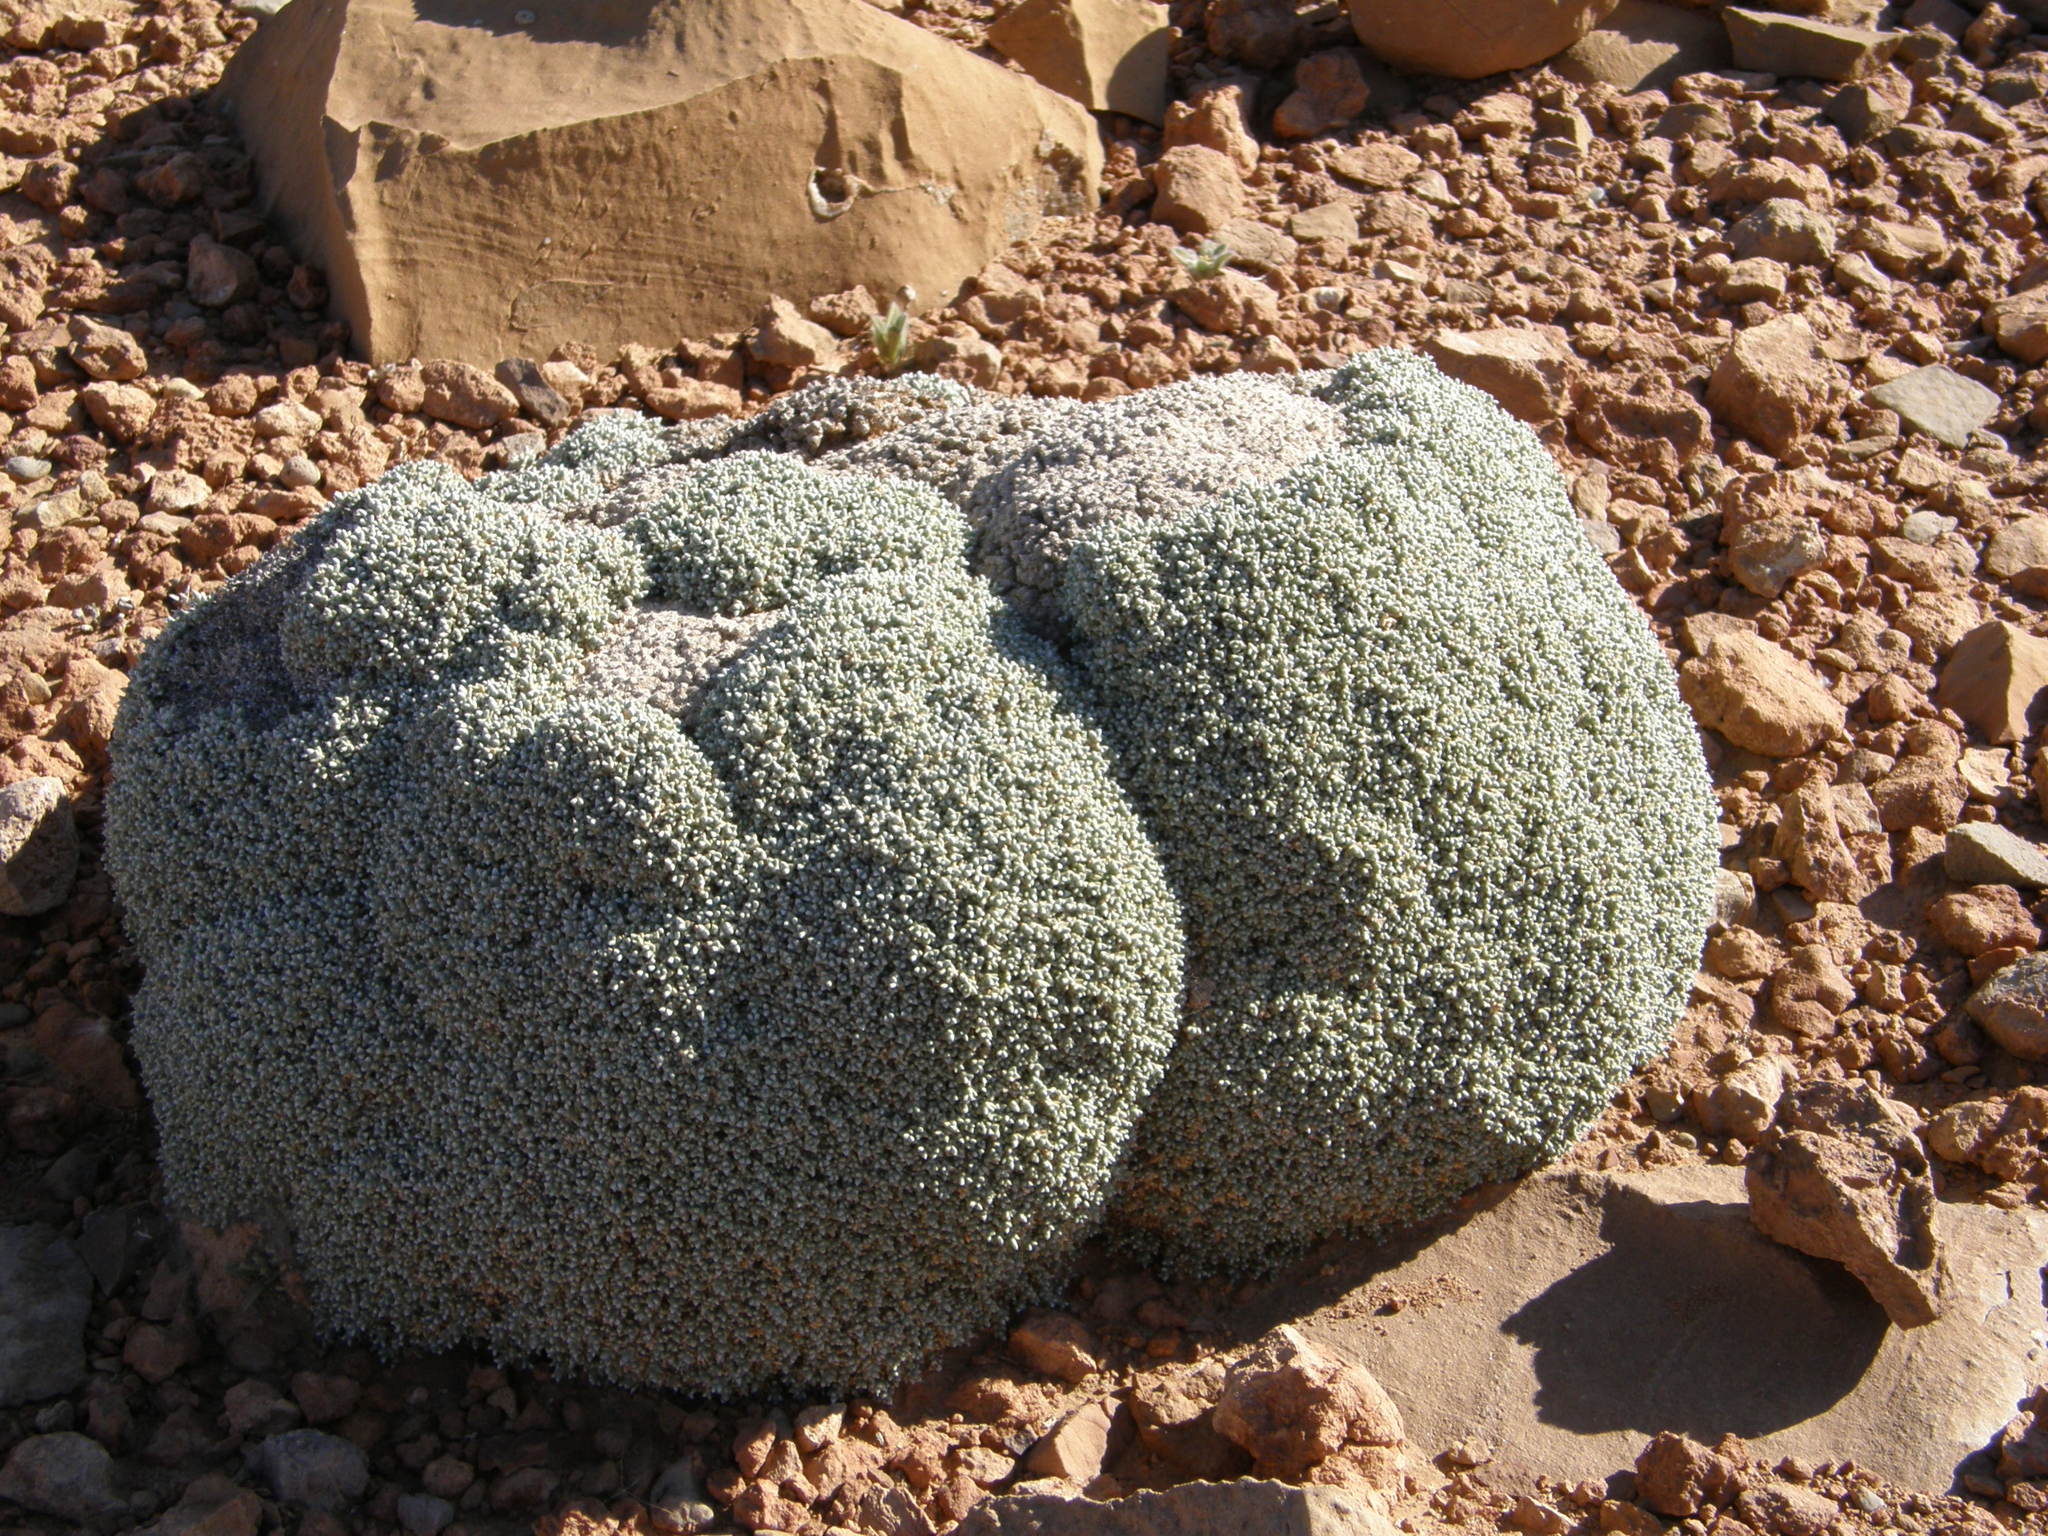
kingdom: Plantae
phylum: Tracheophyta
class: Magnoliopsida
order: Caryophyllales
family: Amaranthaceae
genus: Anabasis
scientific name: Anabasis aretioides
